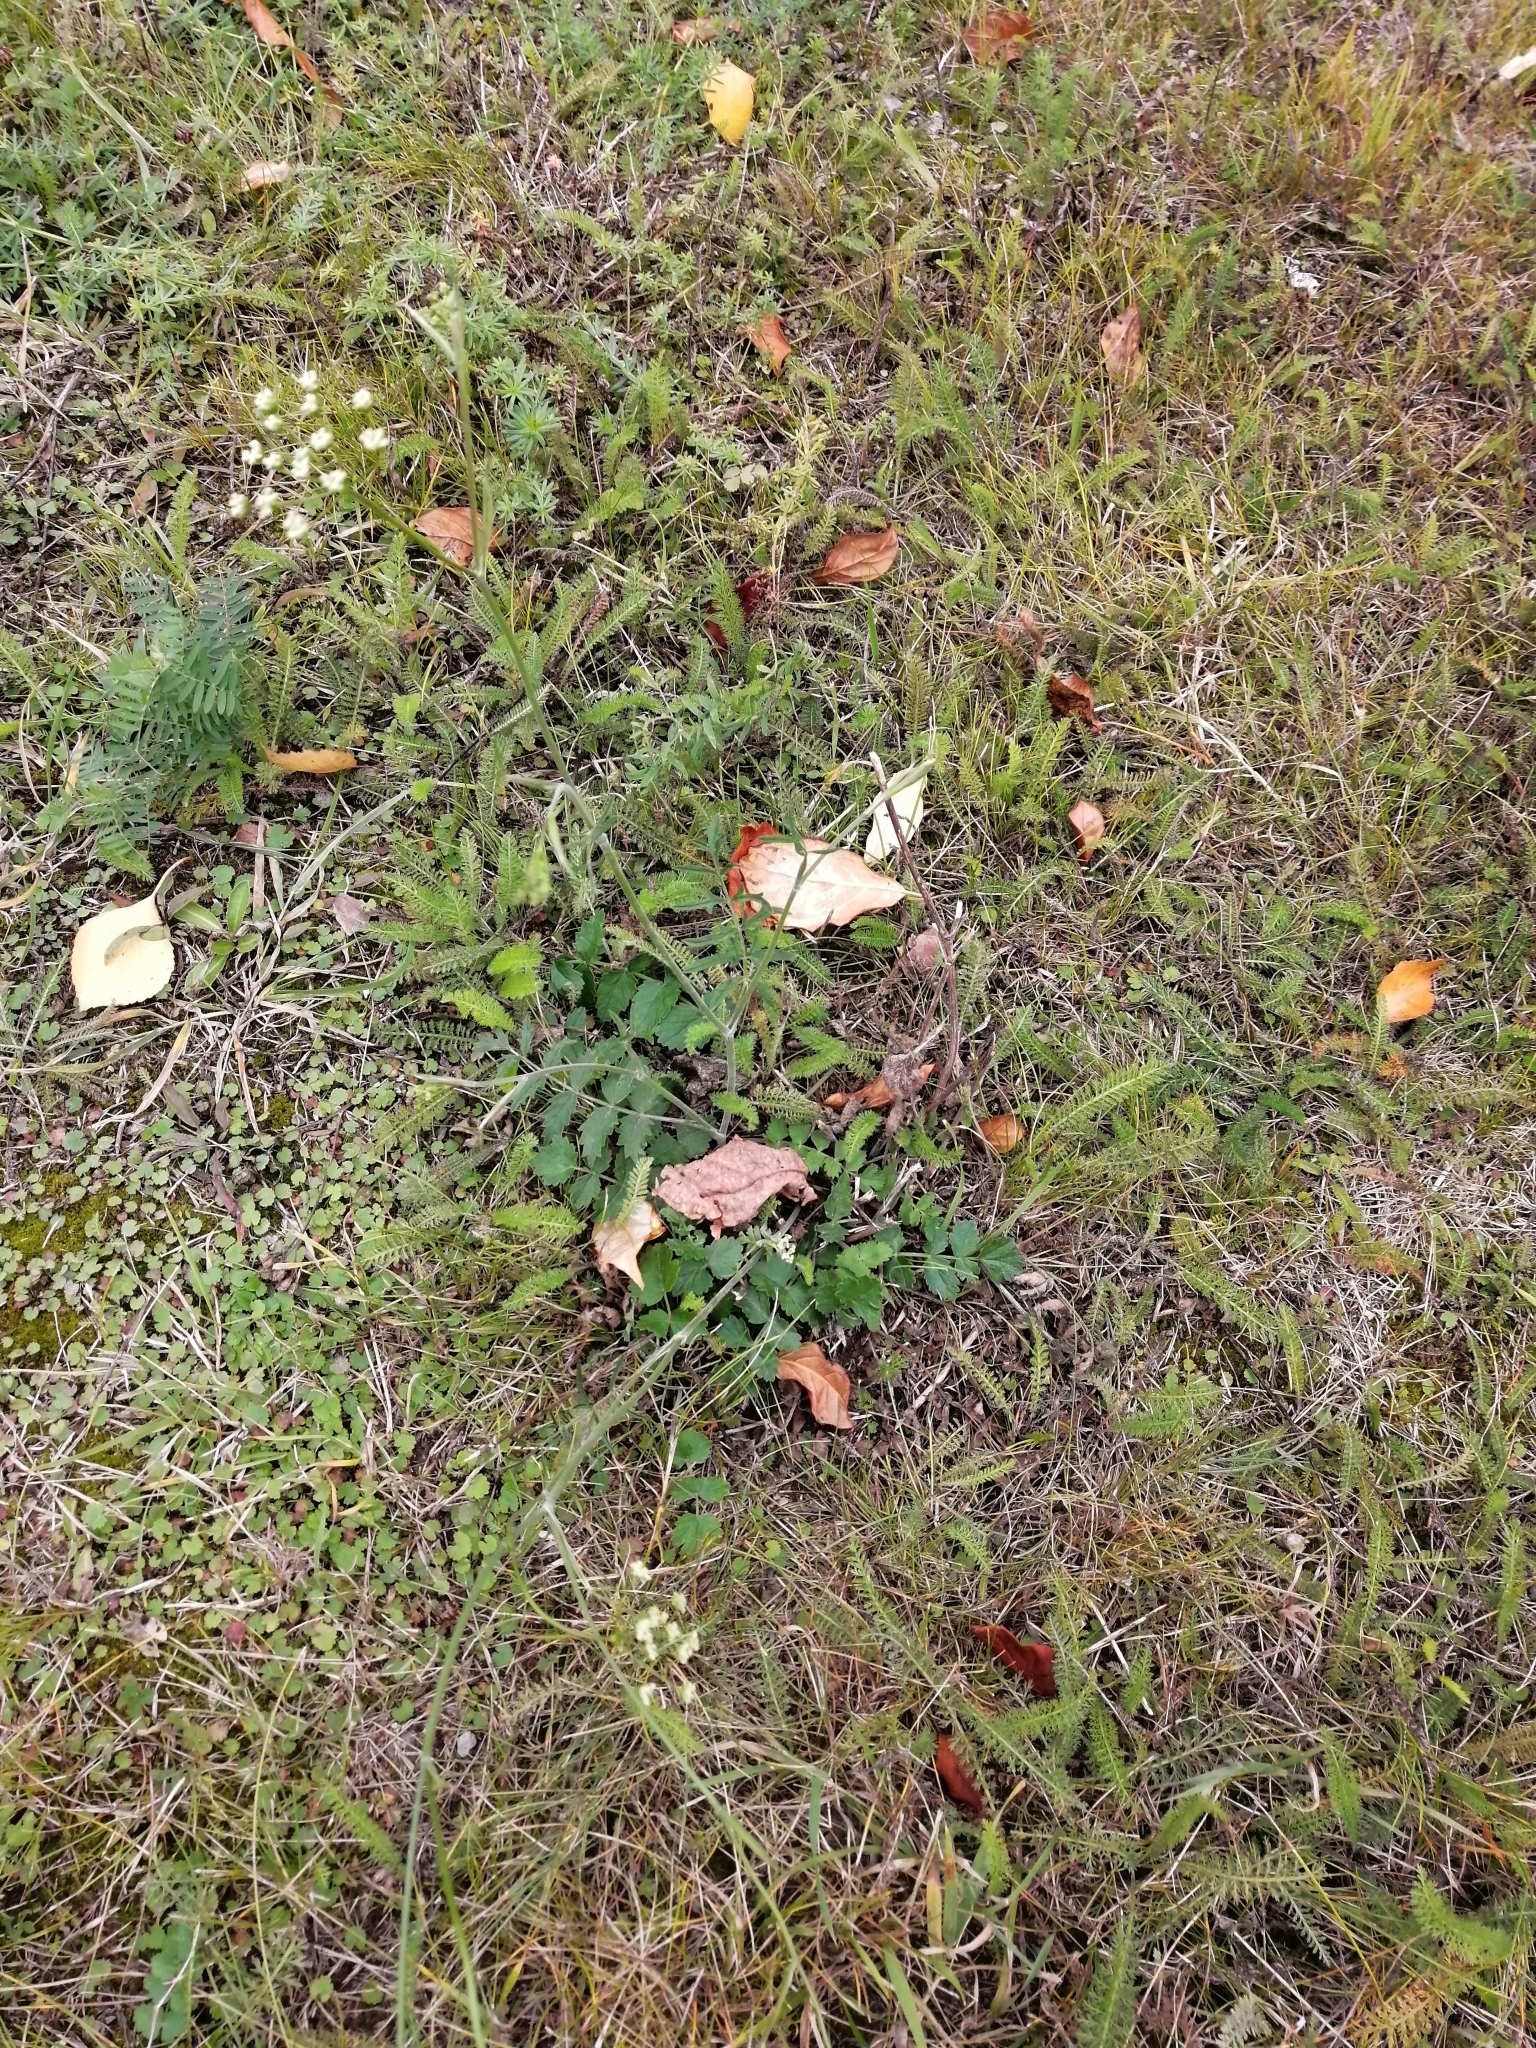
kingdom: Plantae
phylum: Tracheophyta
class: Magnoliopsida
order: Apiales
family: Apiaceae
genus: Pimpinella
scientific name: Pimpinella saxifraga
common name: Burnet-saxifrage
